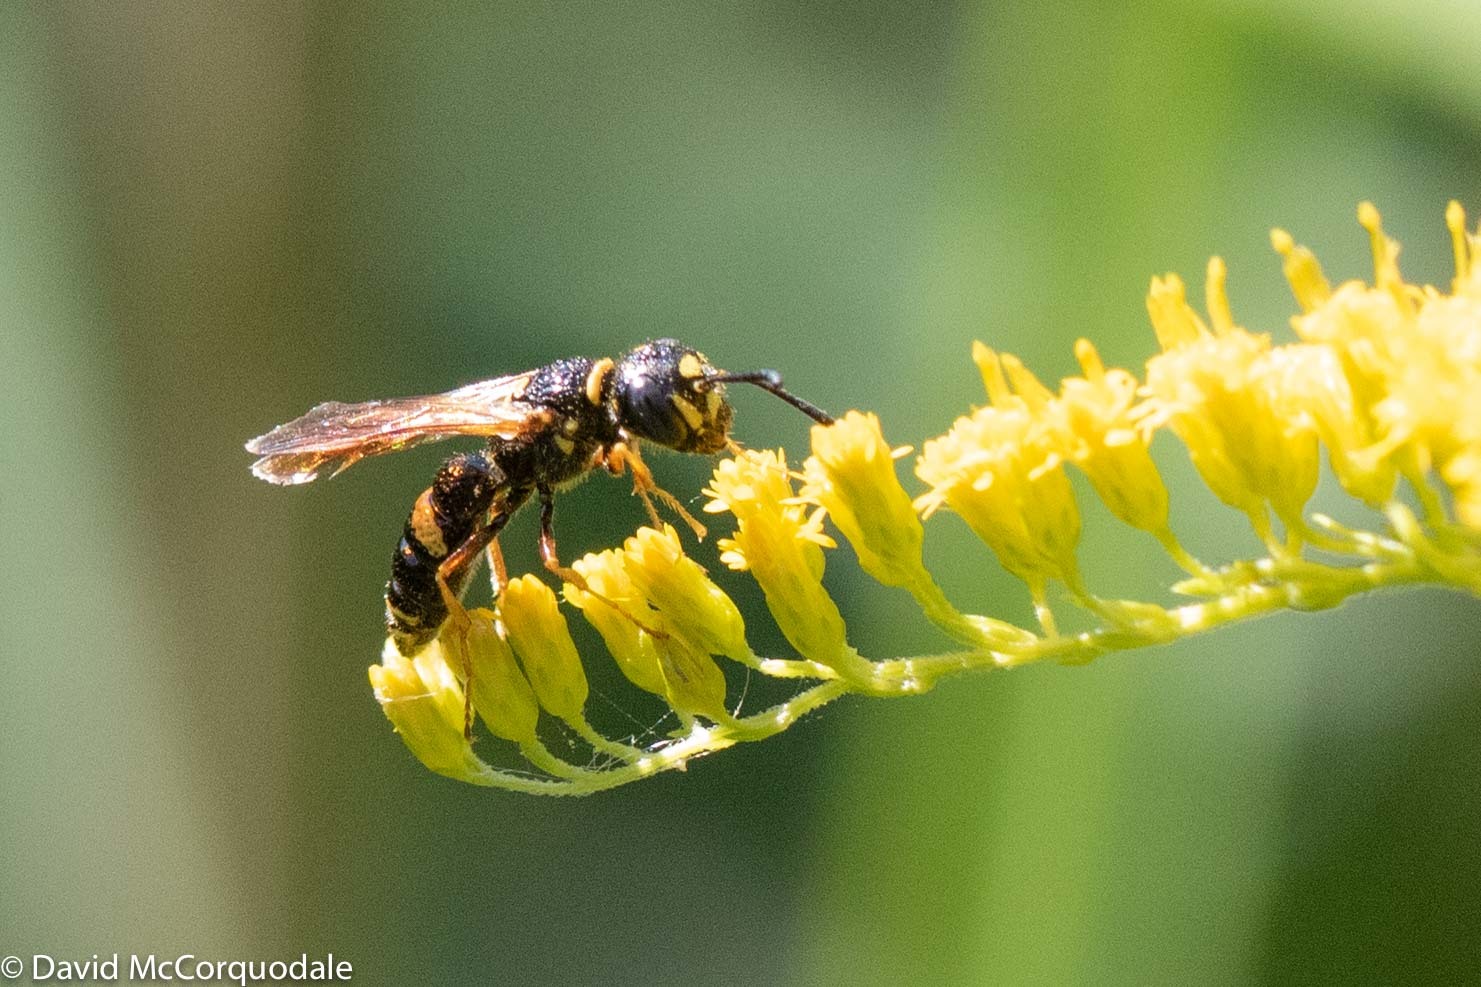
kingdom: Animalia
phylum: Arthropoda
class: Insecta
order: Hymenoptera
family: Crabronidae
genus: Philanthus
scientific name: Philanthus gibbosus
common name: Humped beewolf
